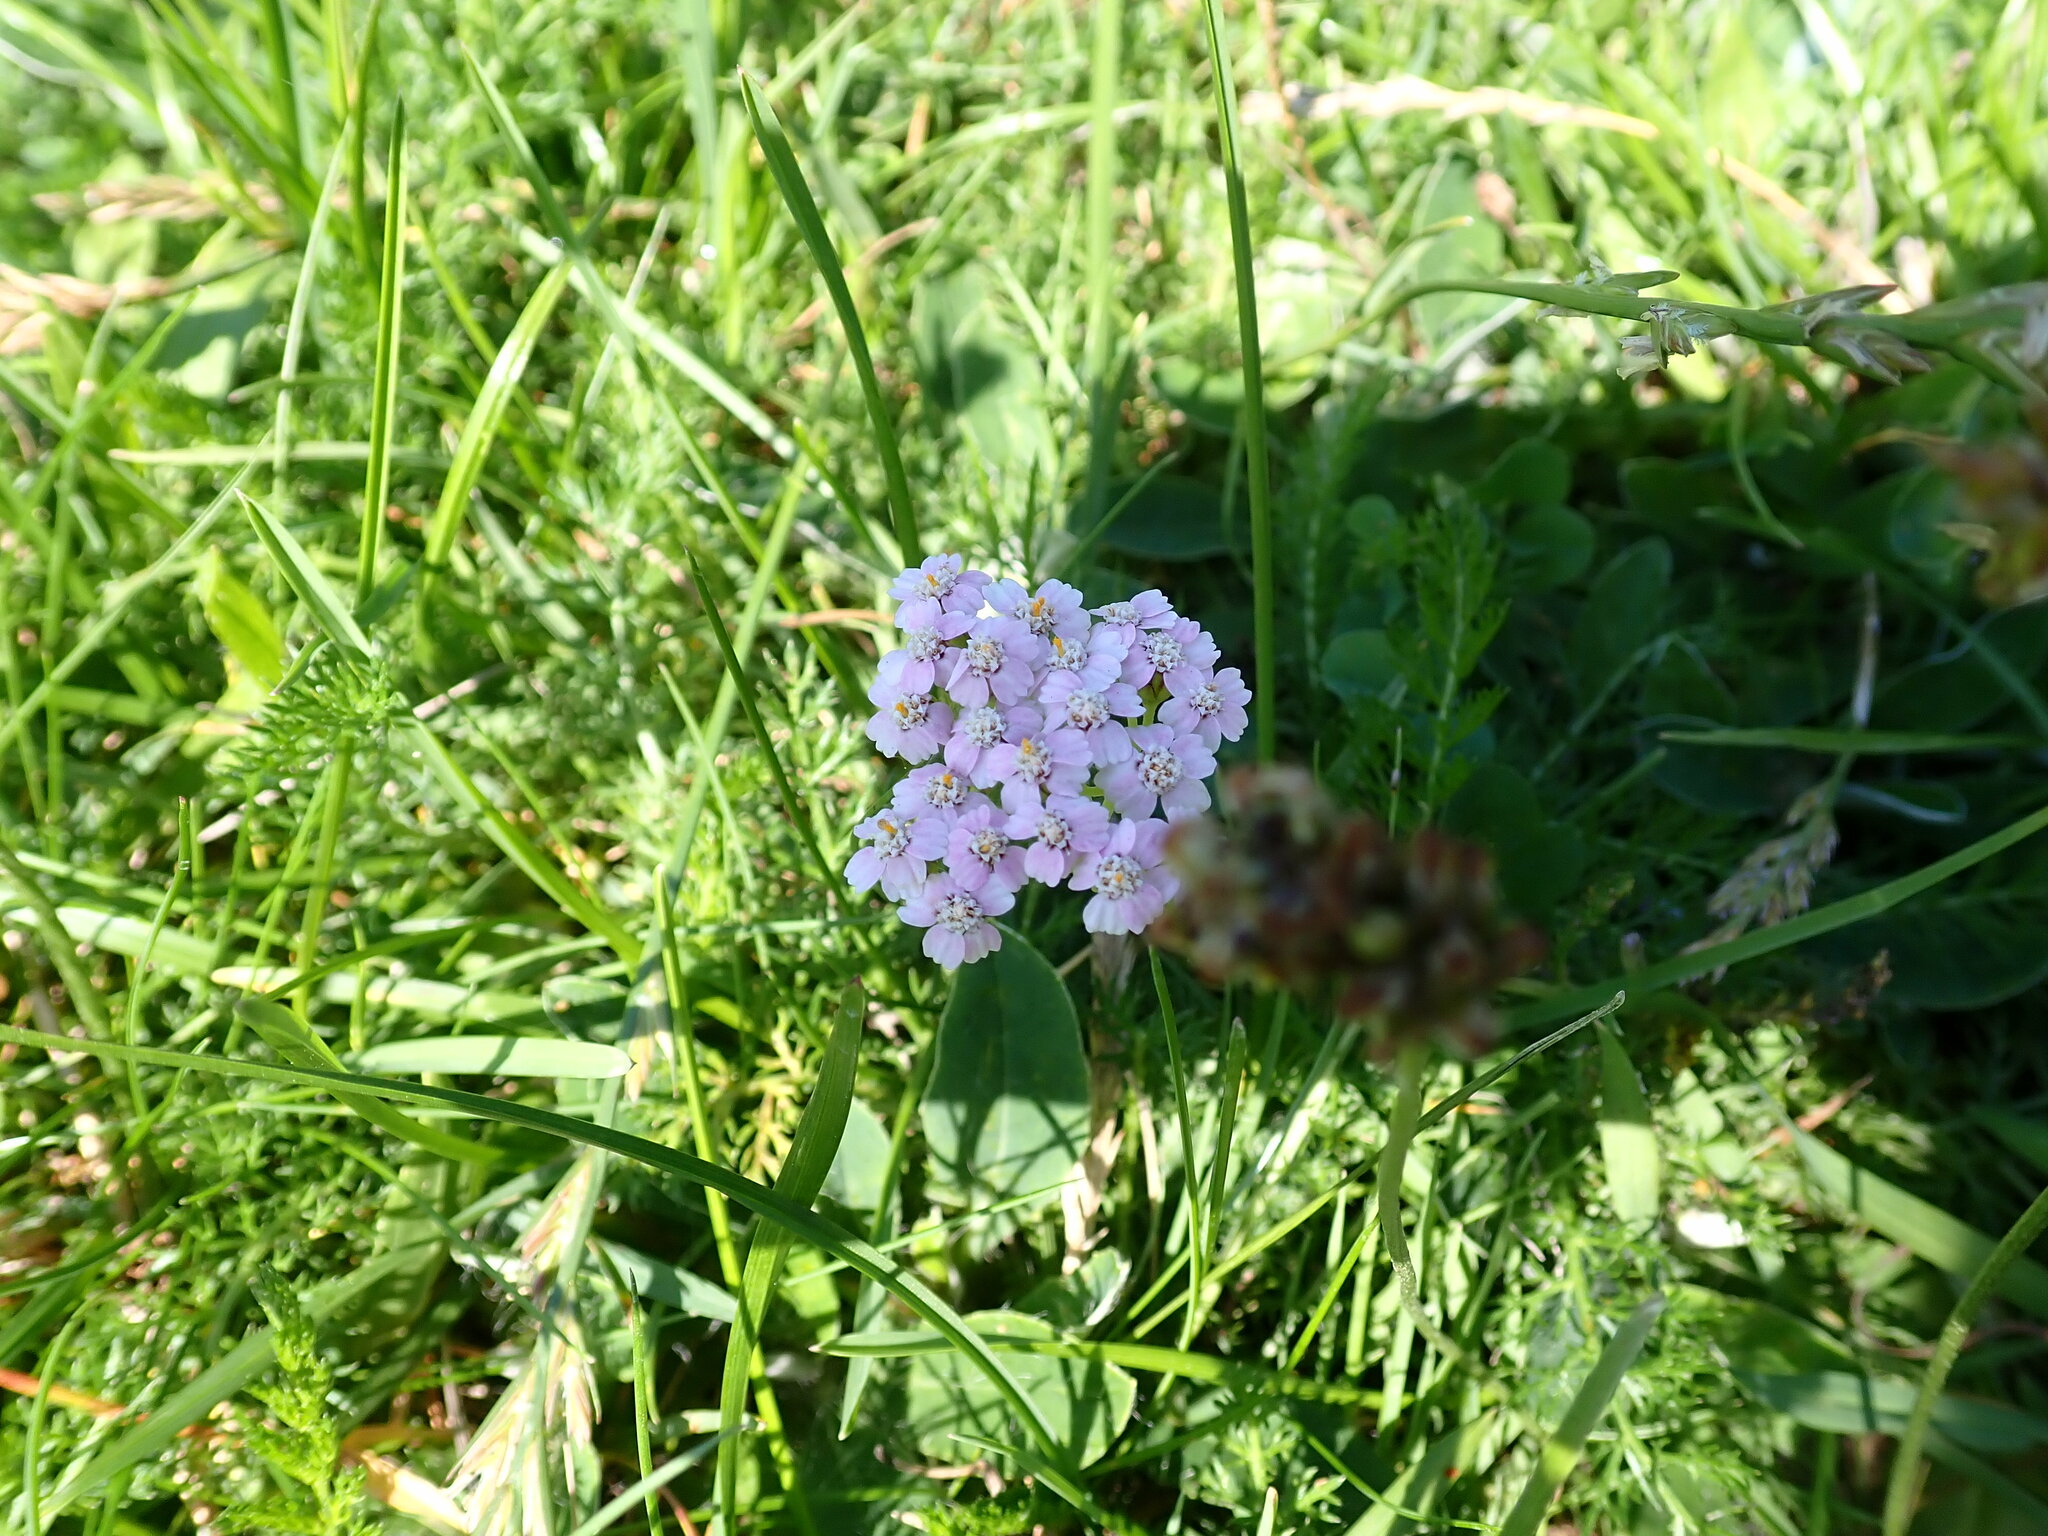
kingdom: Plantae
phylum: Tracheophyta
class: Magnoliopsida
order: Asterales
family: Asteraceae
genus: Achillea
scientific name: Achillea millefolium
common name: Yarrow
